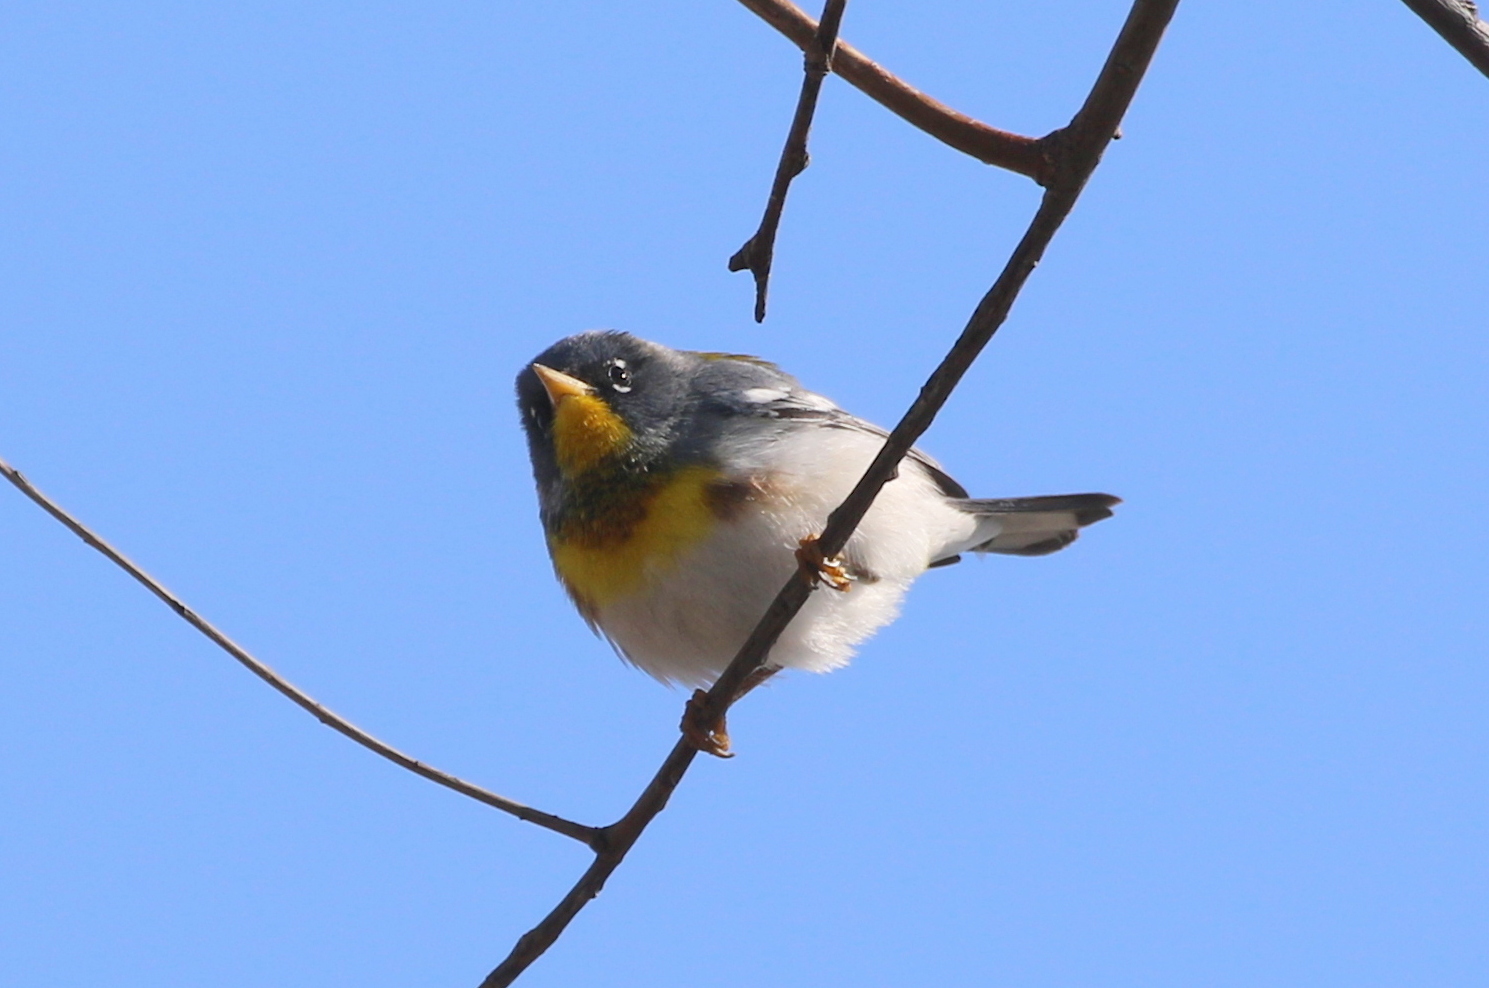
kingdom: Animalia
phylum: Chordata
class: Aves
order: Passeriformes
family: Parulidae
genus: Setophaga
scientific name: Setophaga americana
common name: Northern parula
